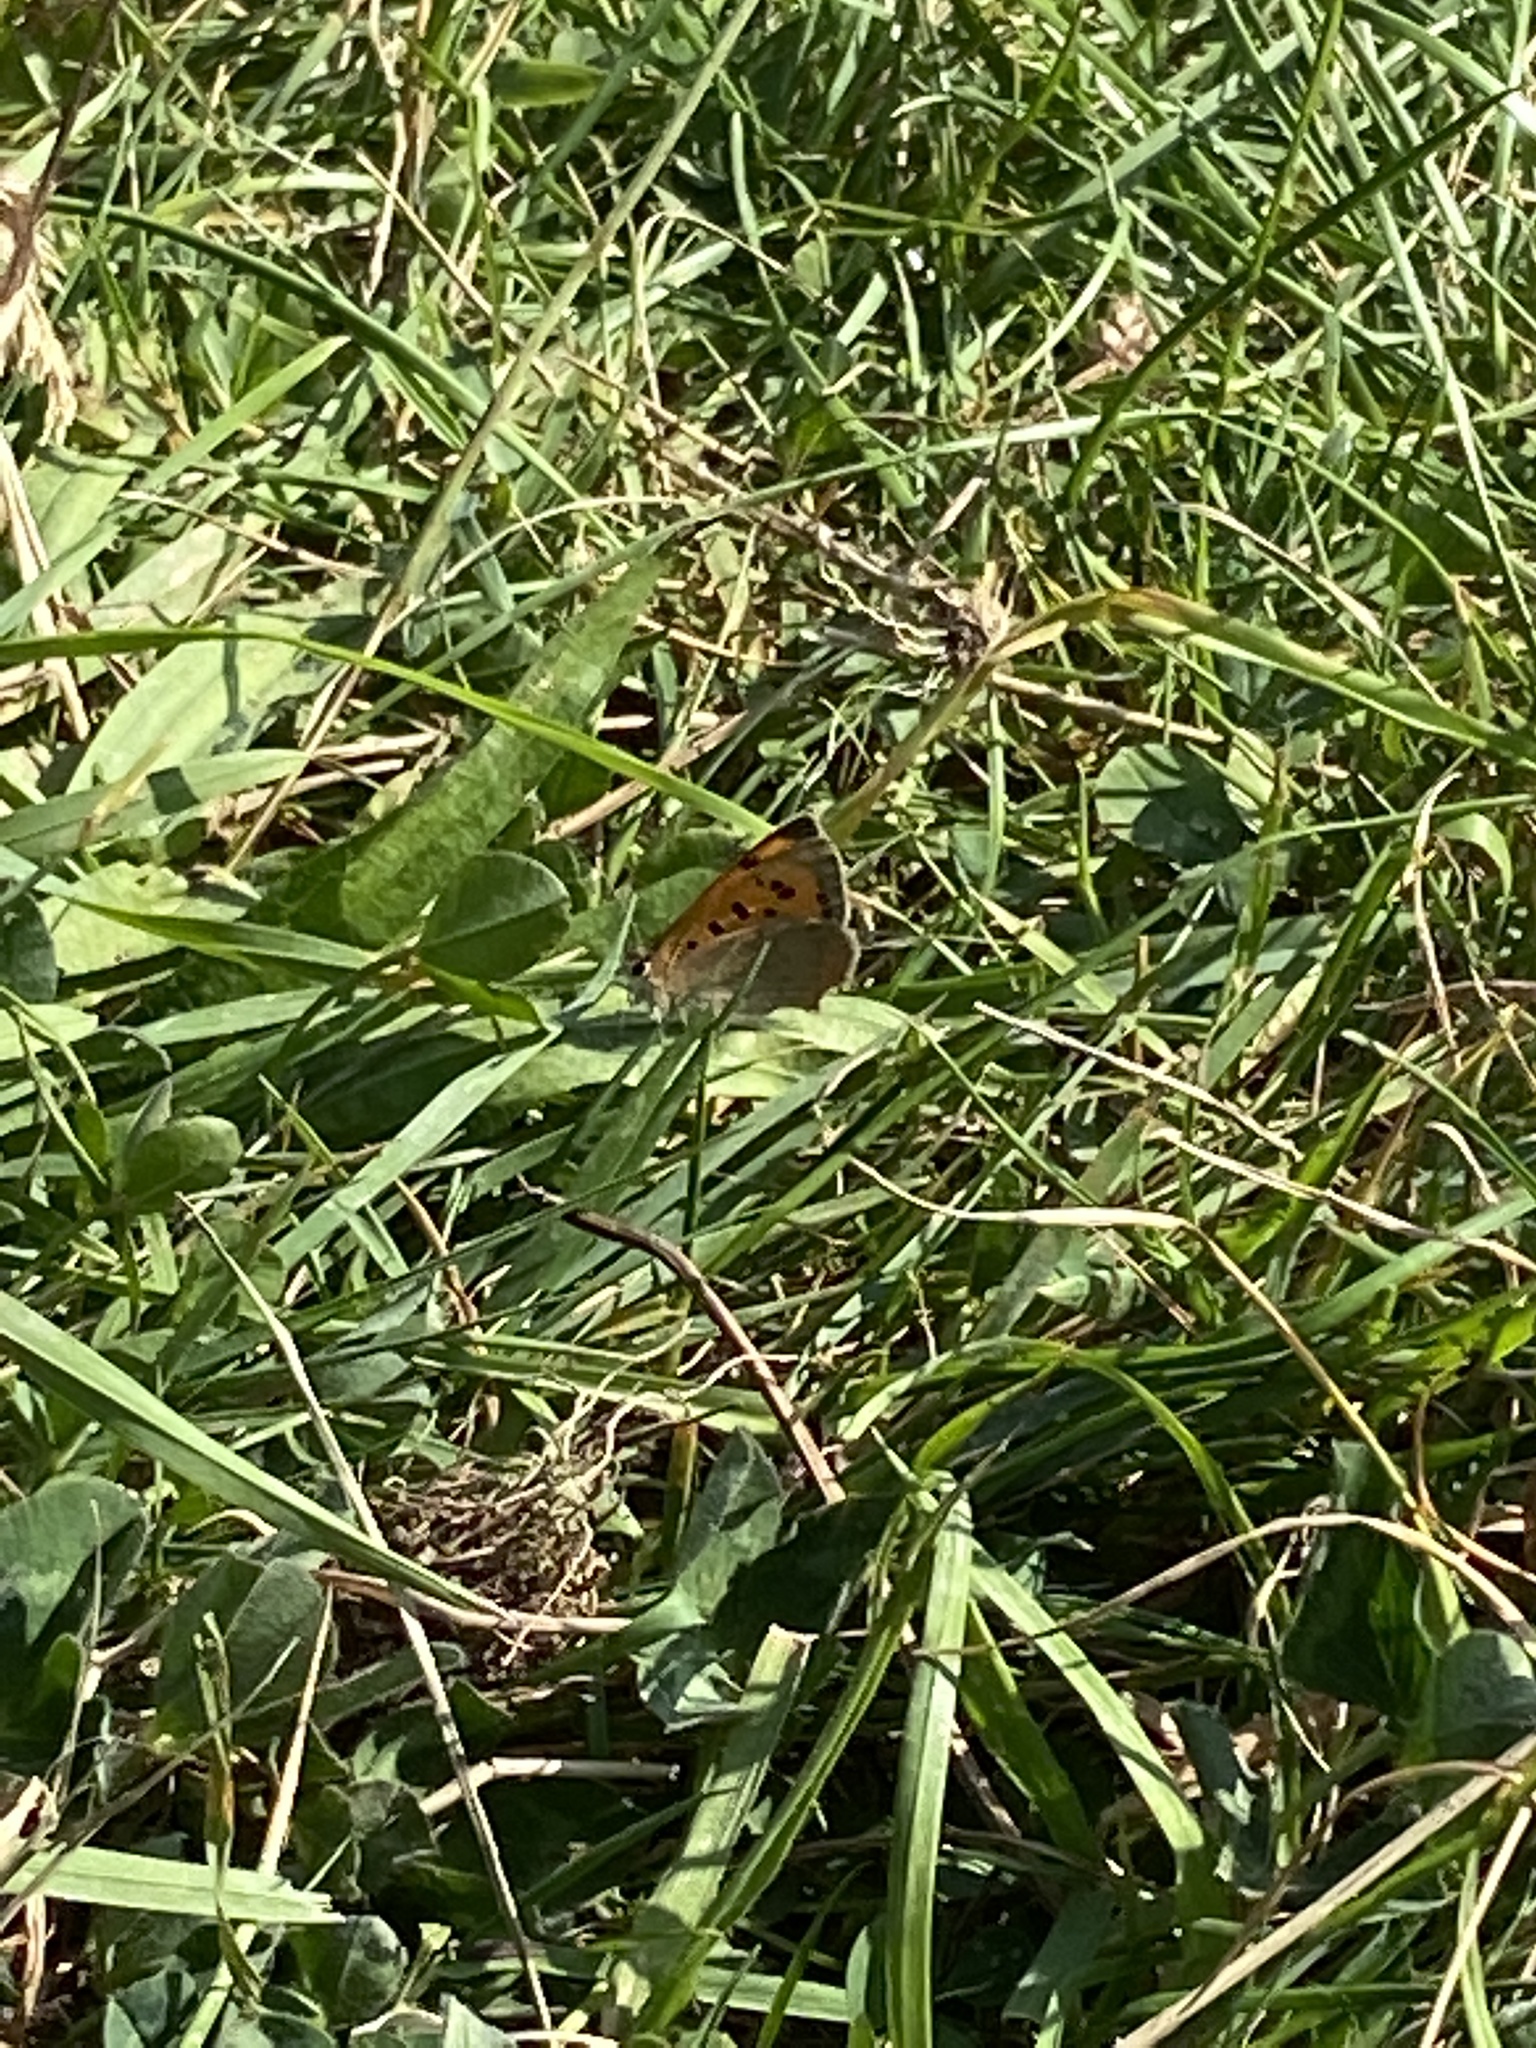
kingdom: Animalia
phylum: Arthropoda
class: Insecta
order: Lepidoptera
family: Lycaenidae
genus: Lycaena
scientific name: Lycaena phlaeas
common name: Small copper
